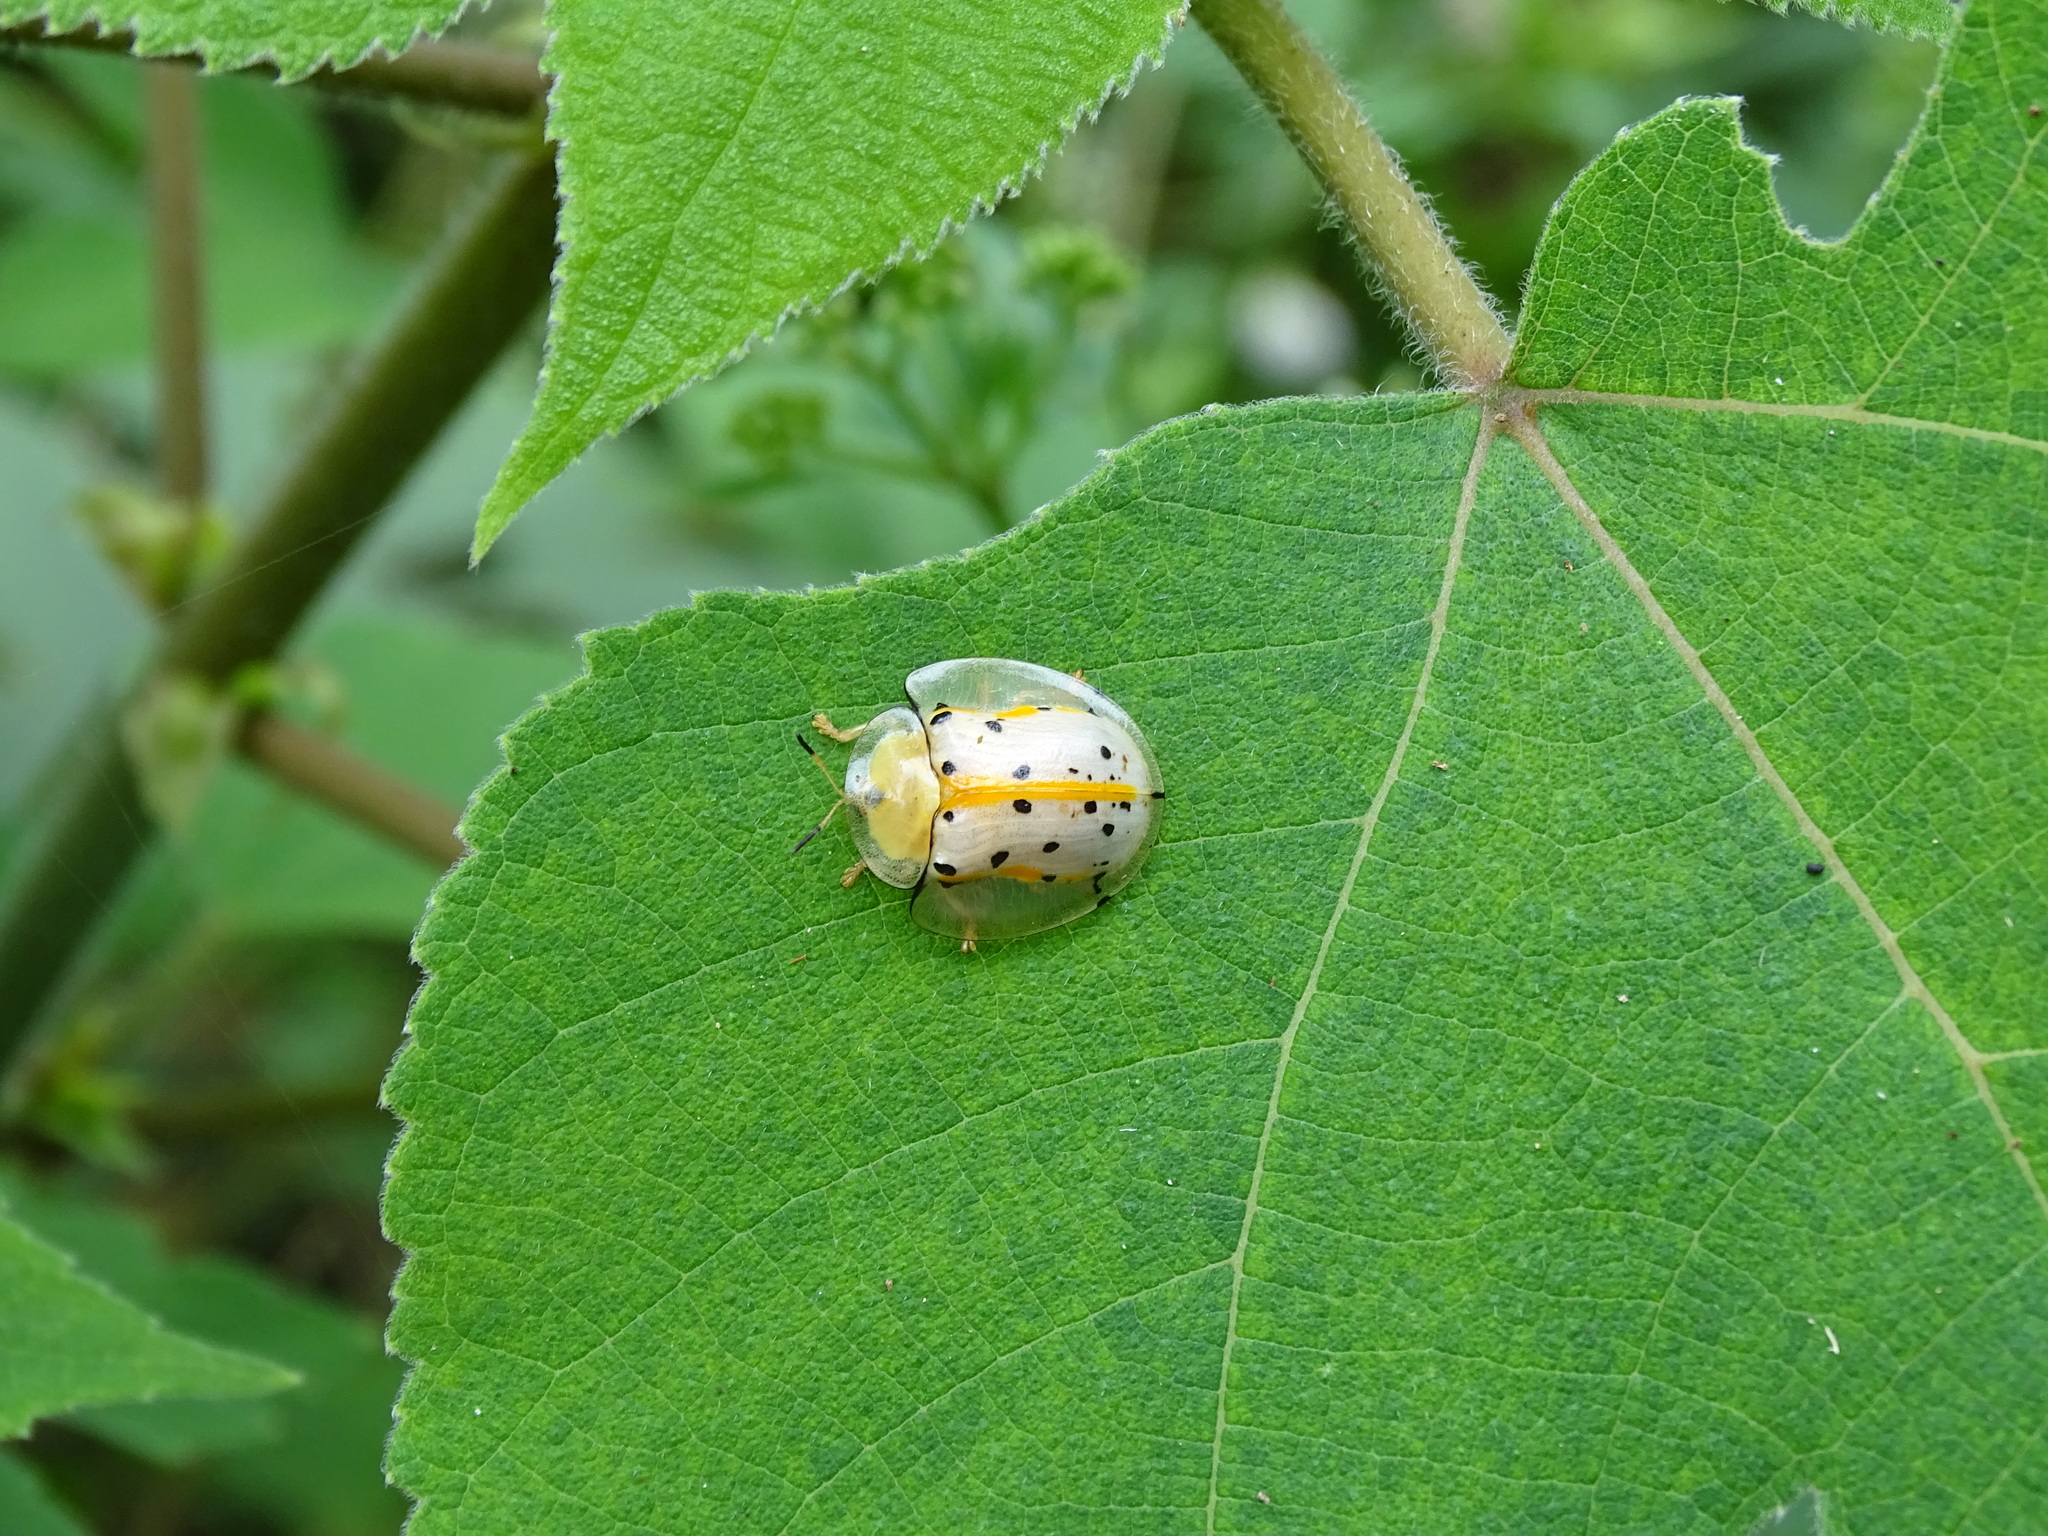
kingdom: Animalia
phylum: Arthropoda
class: Insecta
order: Coleoptera
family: Chrysomelidae
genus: Aspidimorpha
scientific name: Aspidimorpha miliaris
